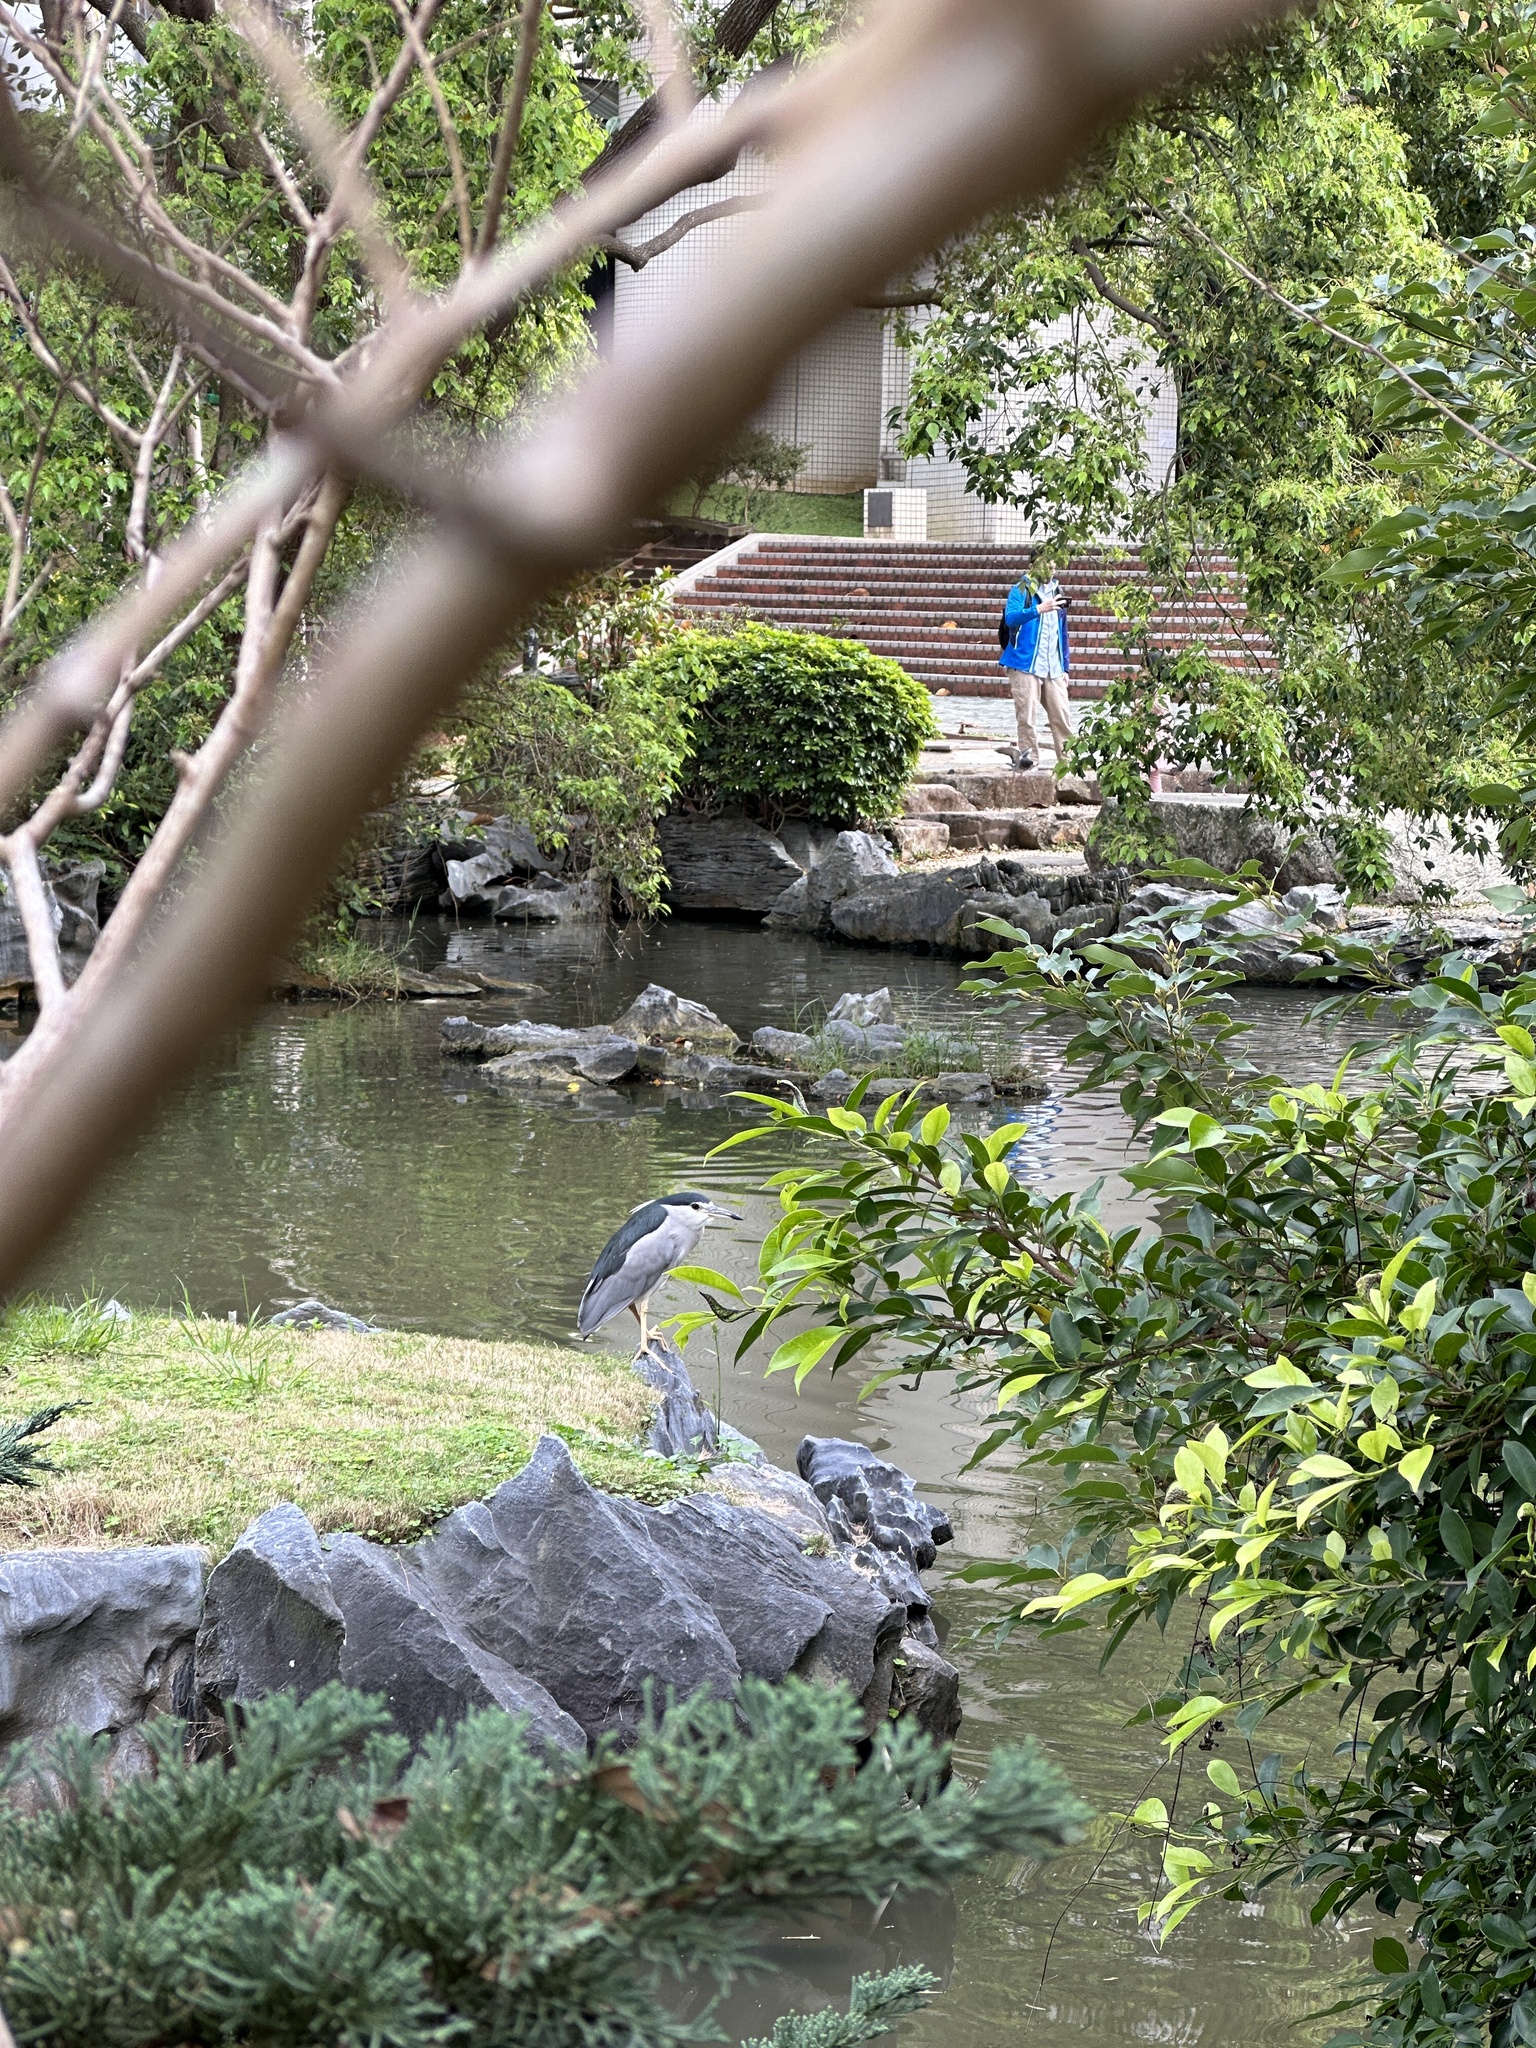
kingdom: Animalia
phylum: Chordata
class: Aves
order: Pelecaniformes
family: Ardeidae
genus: Nycticorax
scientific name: Nycticorax nycticorax
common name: Black-crowned night heron
